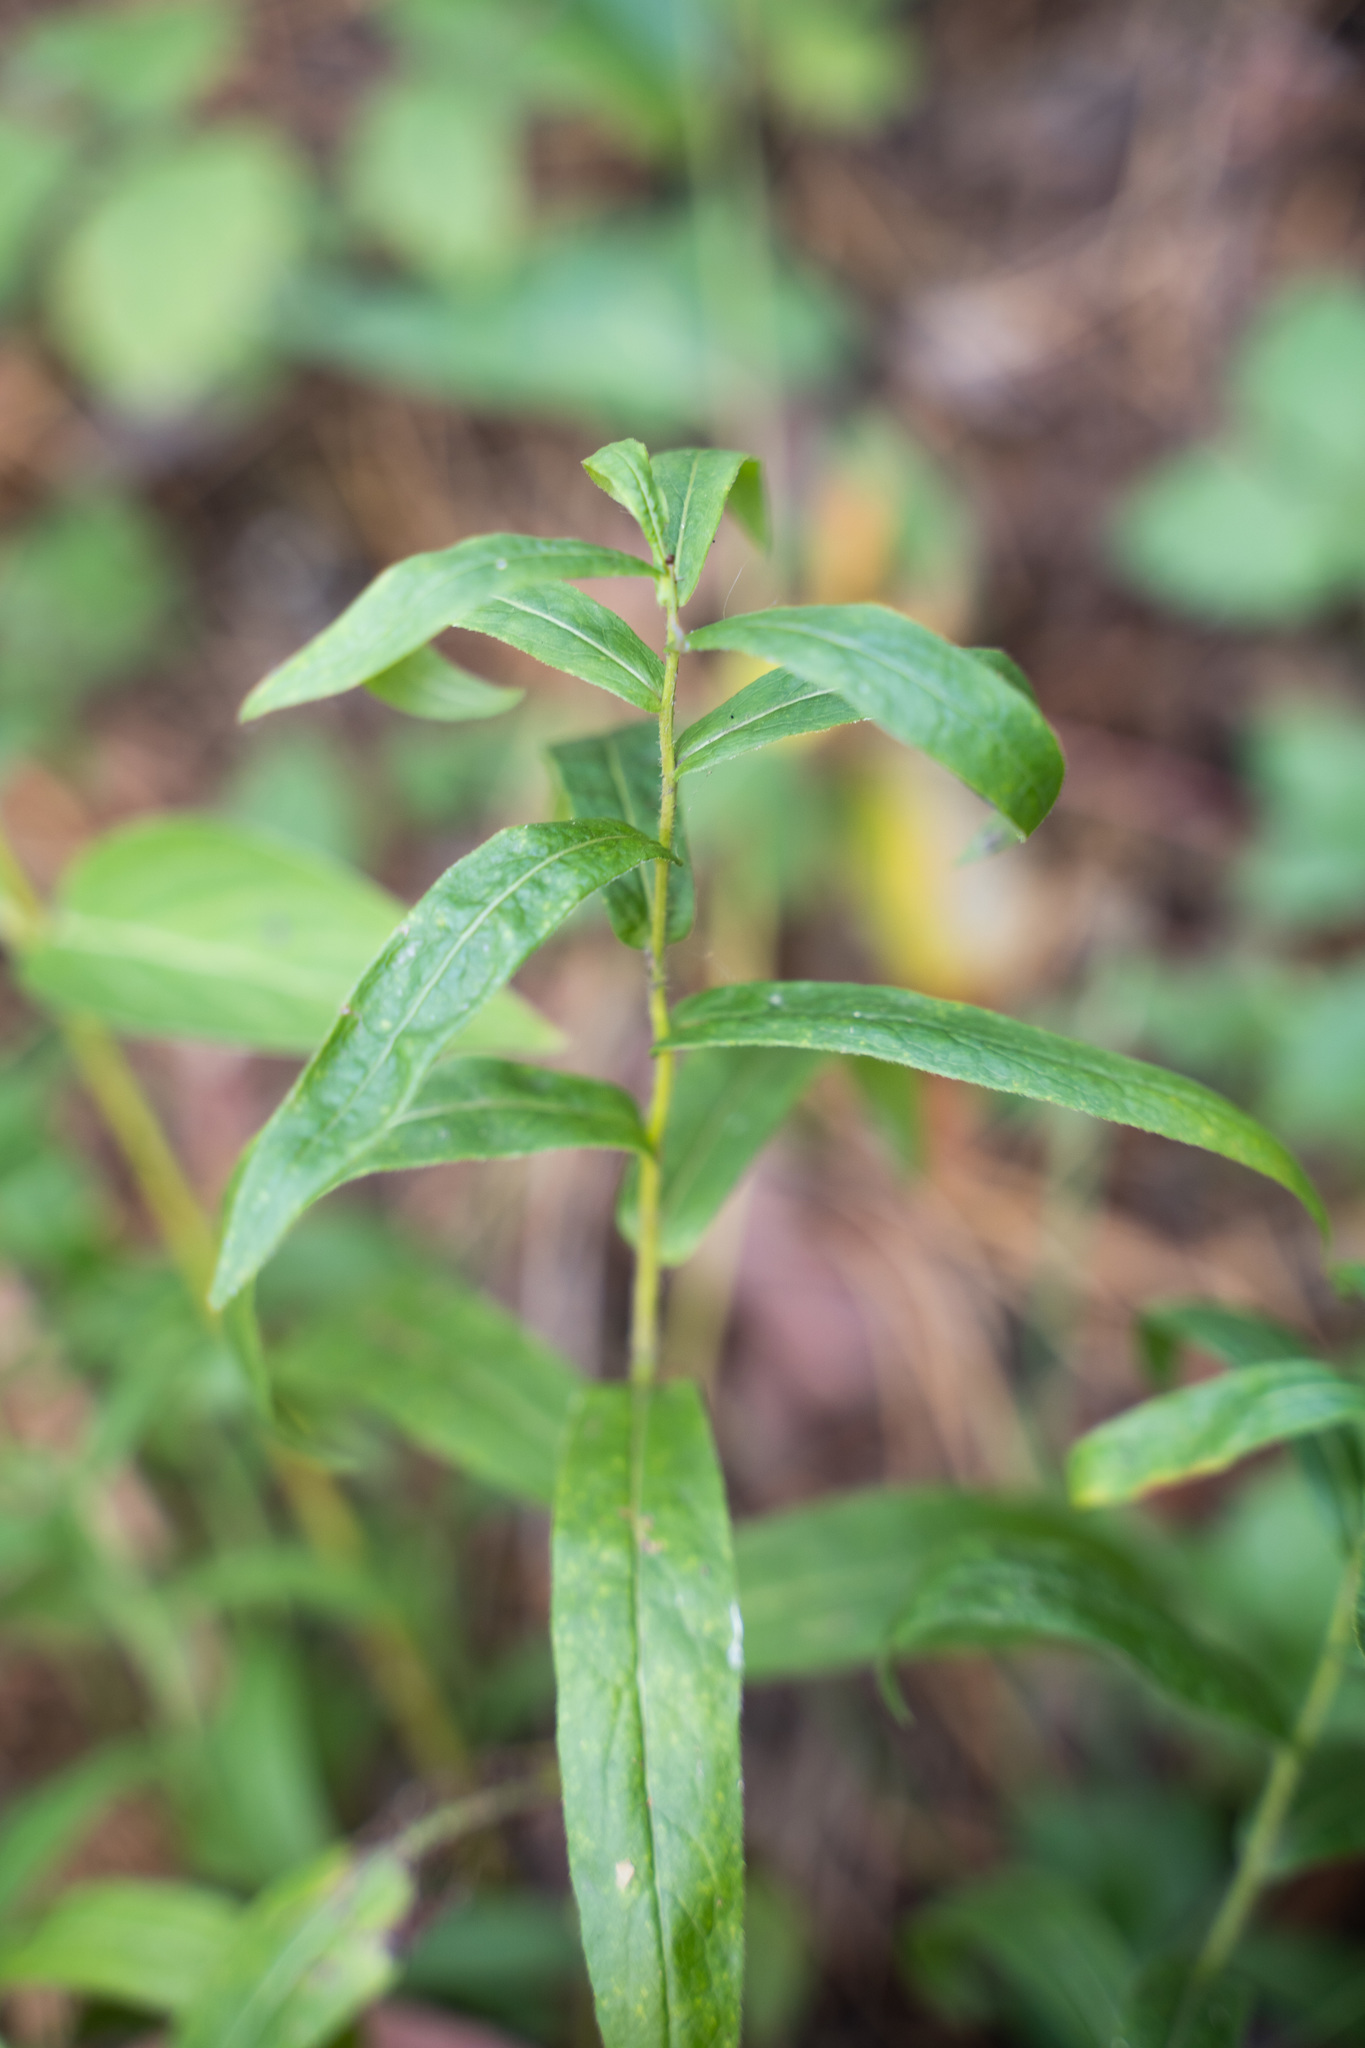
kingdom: Plantae
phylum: Tracheophyta
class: Magnoliopsida
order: Asterales
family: Asteraceae
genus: Pentanema
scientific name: Pentanema salicinum
